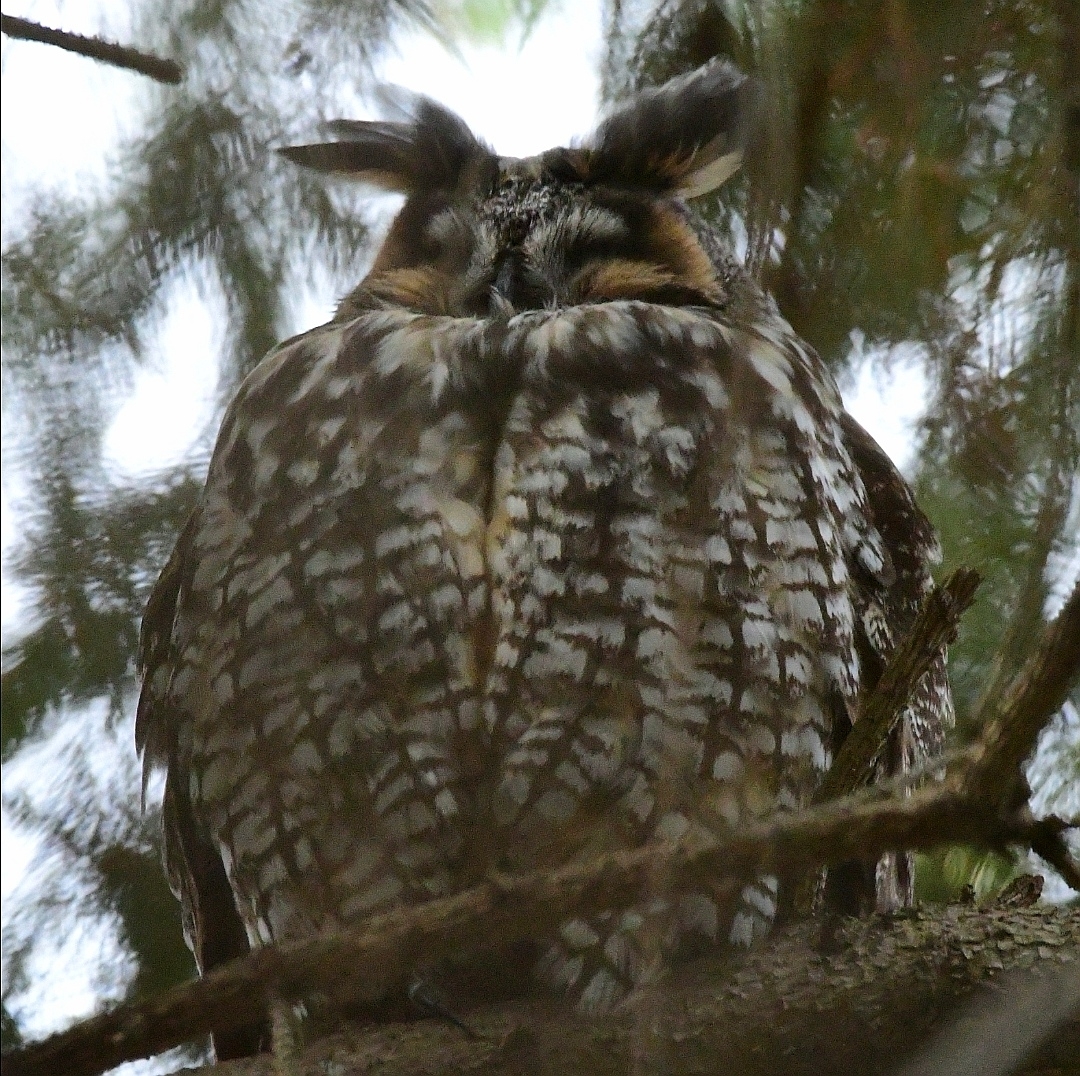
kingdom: Animalia
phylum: Chordata
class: Aves
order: Strigiformes
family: Strigidae
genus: Asio
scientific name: Asio otus
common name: Long-eared owl
